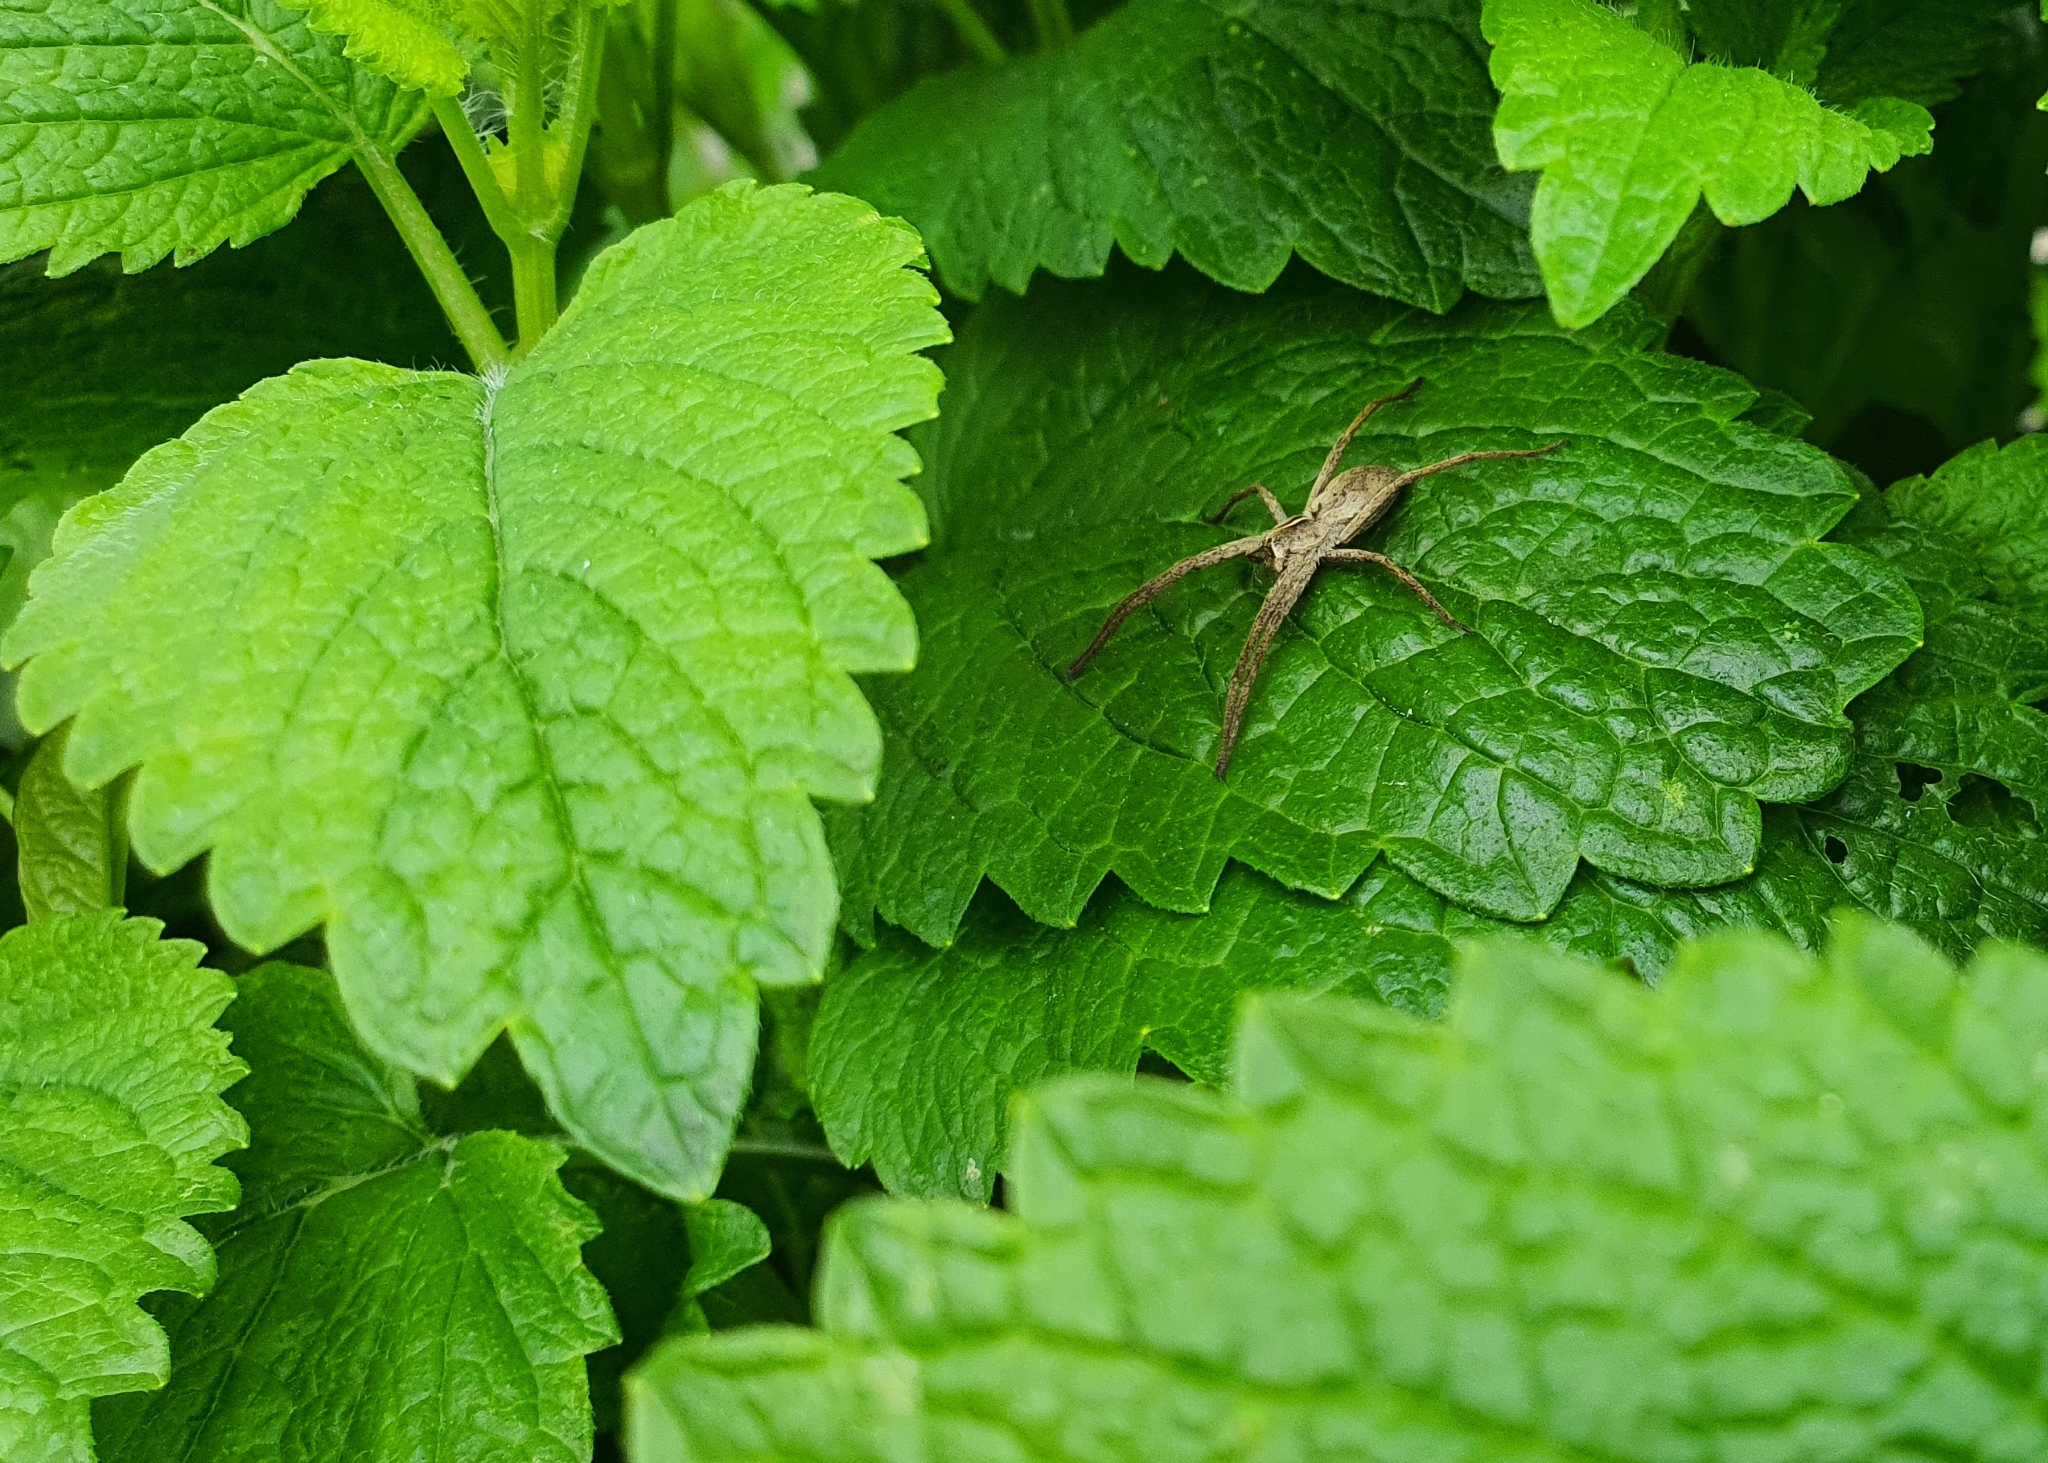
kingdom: Animalia
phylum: Arthropoda
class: Arachnida
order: Araneae
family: Pisauridae
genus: Pisaura
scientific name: Pisaura mirabilis
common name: Tent spider
